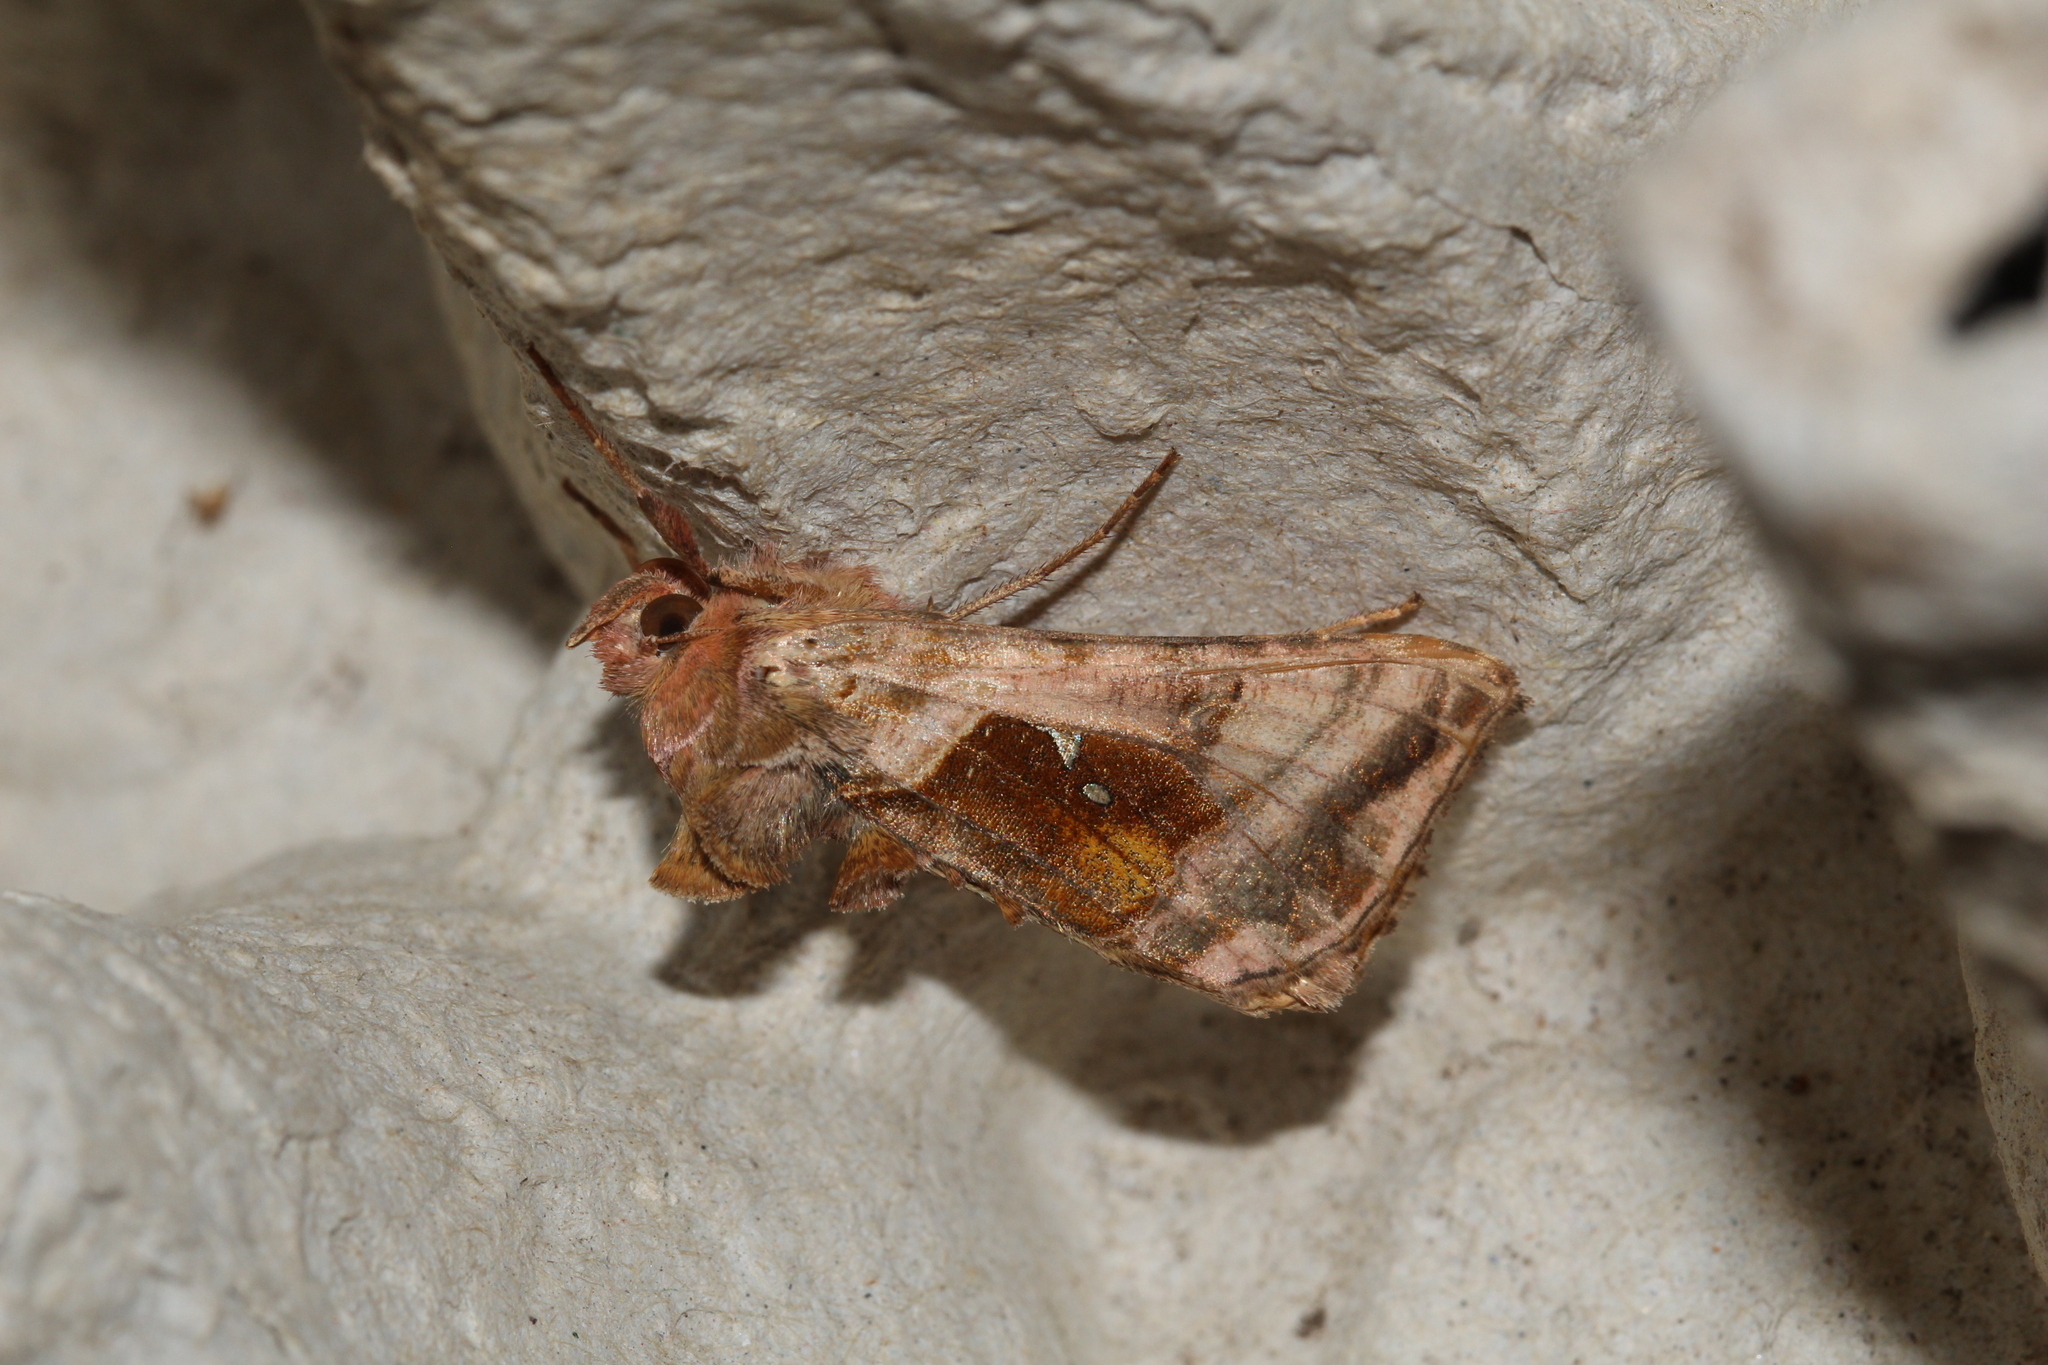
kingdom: Animalia
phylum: Arthropoda
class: Insecta
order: Lepidoptera
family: Noctuidae
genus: Autographa
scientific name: Autographa jota
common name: Plain golden y
